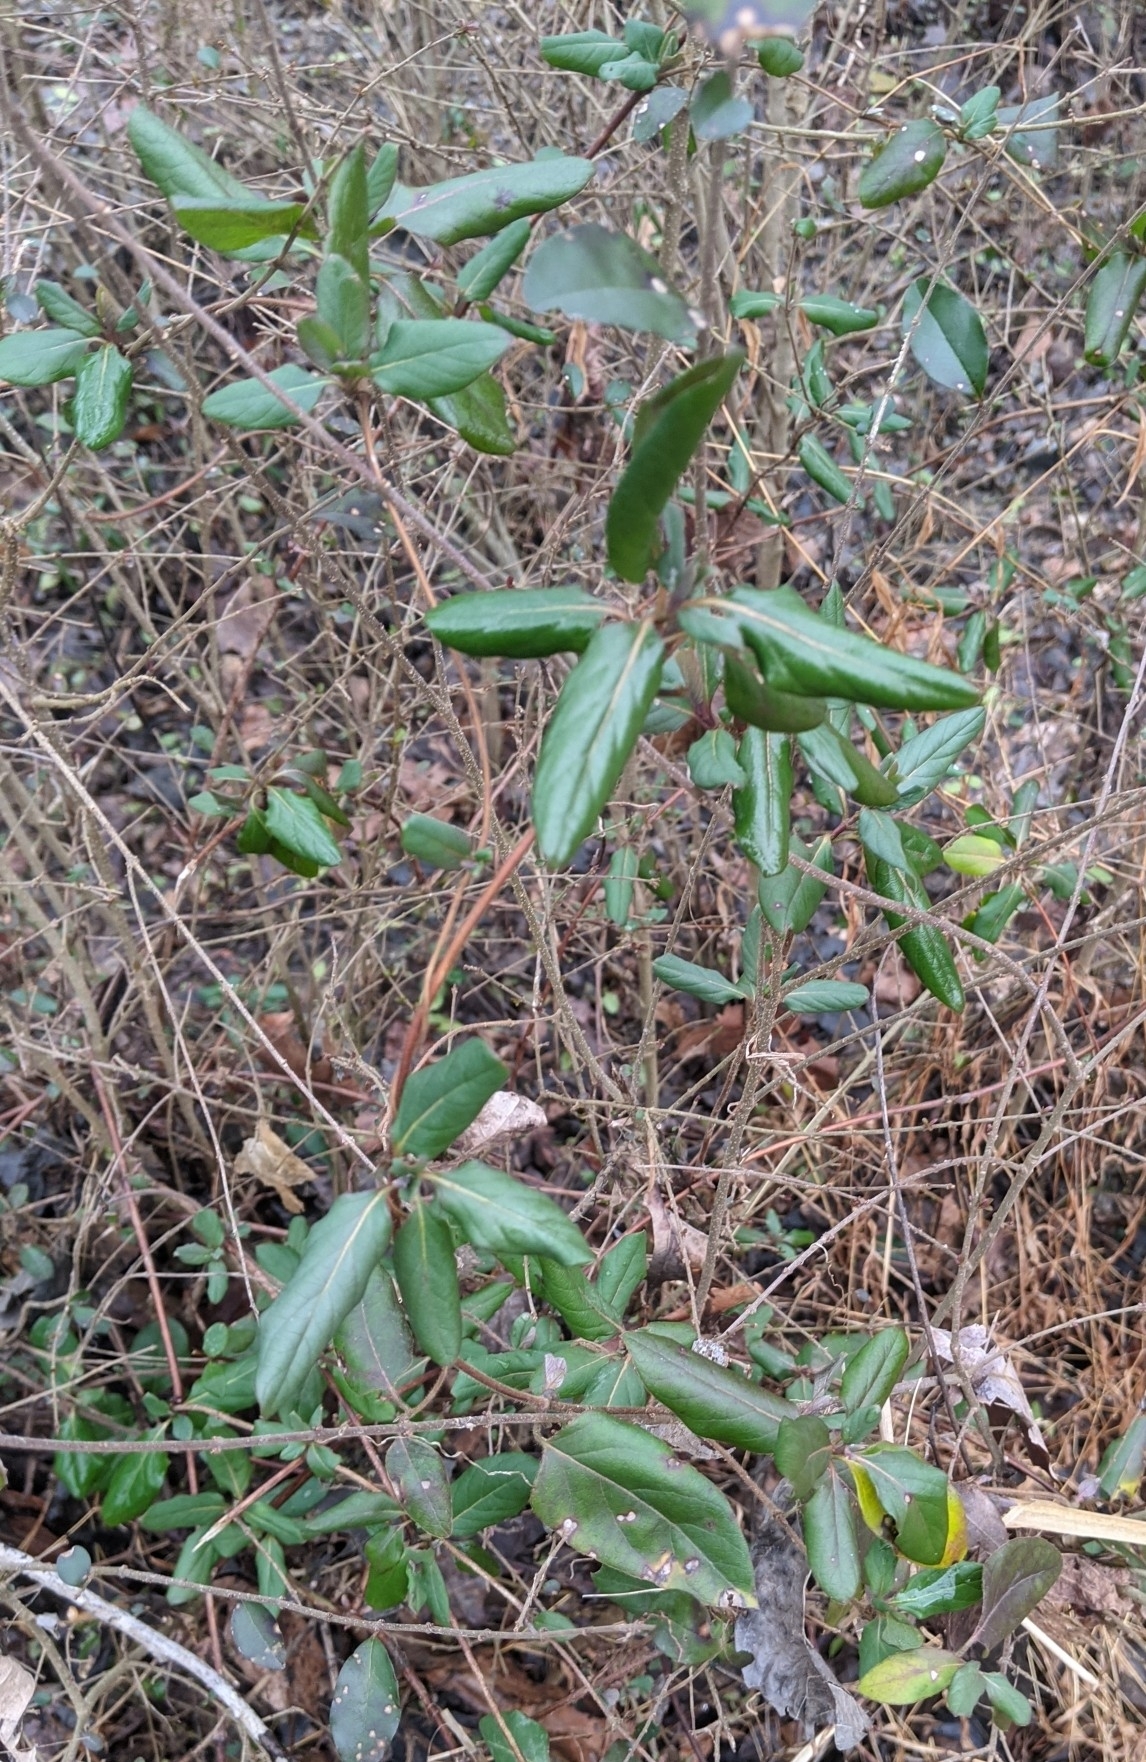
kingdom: Plantae
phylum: Tracheophyta
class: Magnoliopsida
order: Dipsacales
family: Caprifoliaceae
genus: Lonicera
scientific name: Lonicera japonica
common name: Japanese honeysuckle
